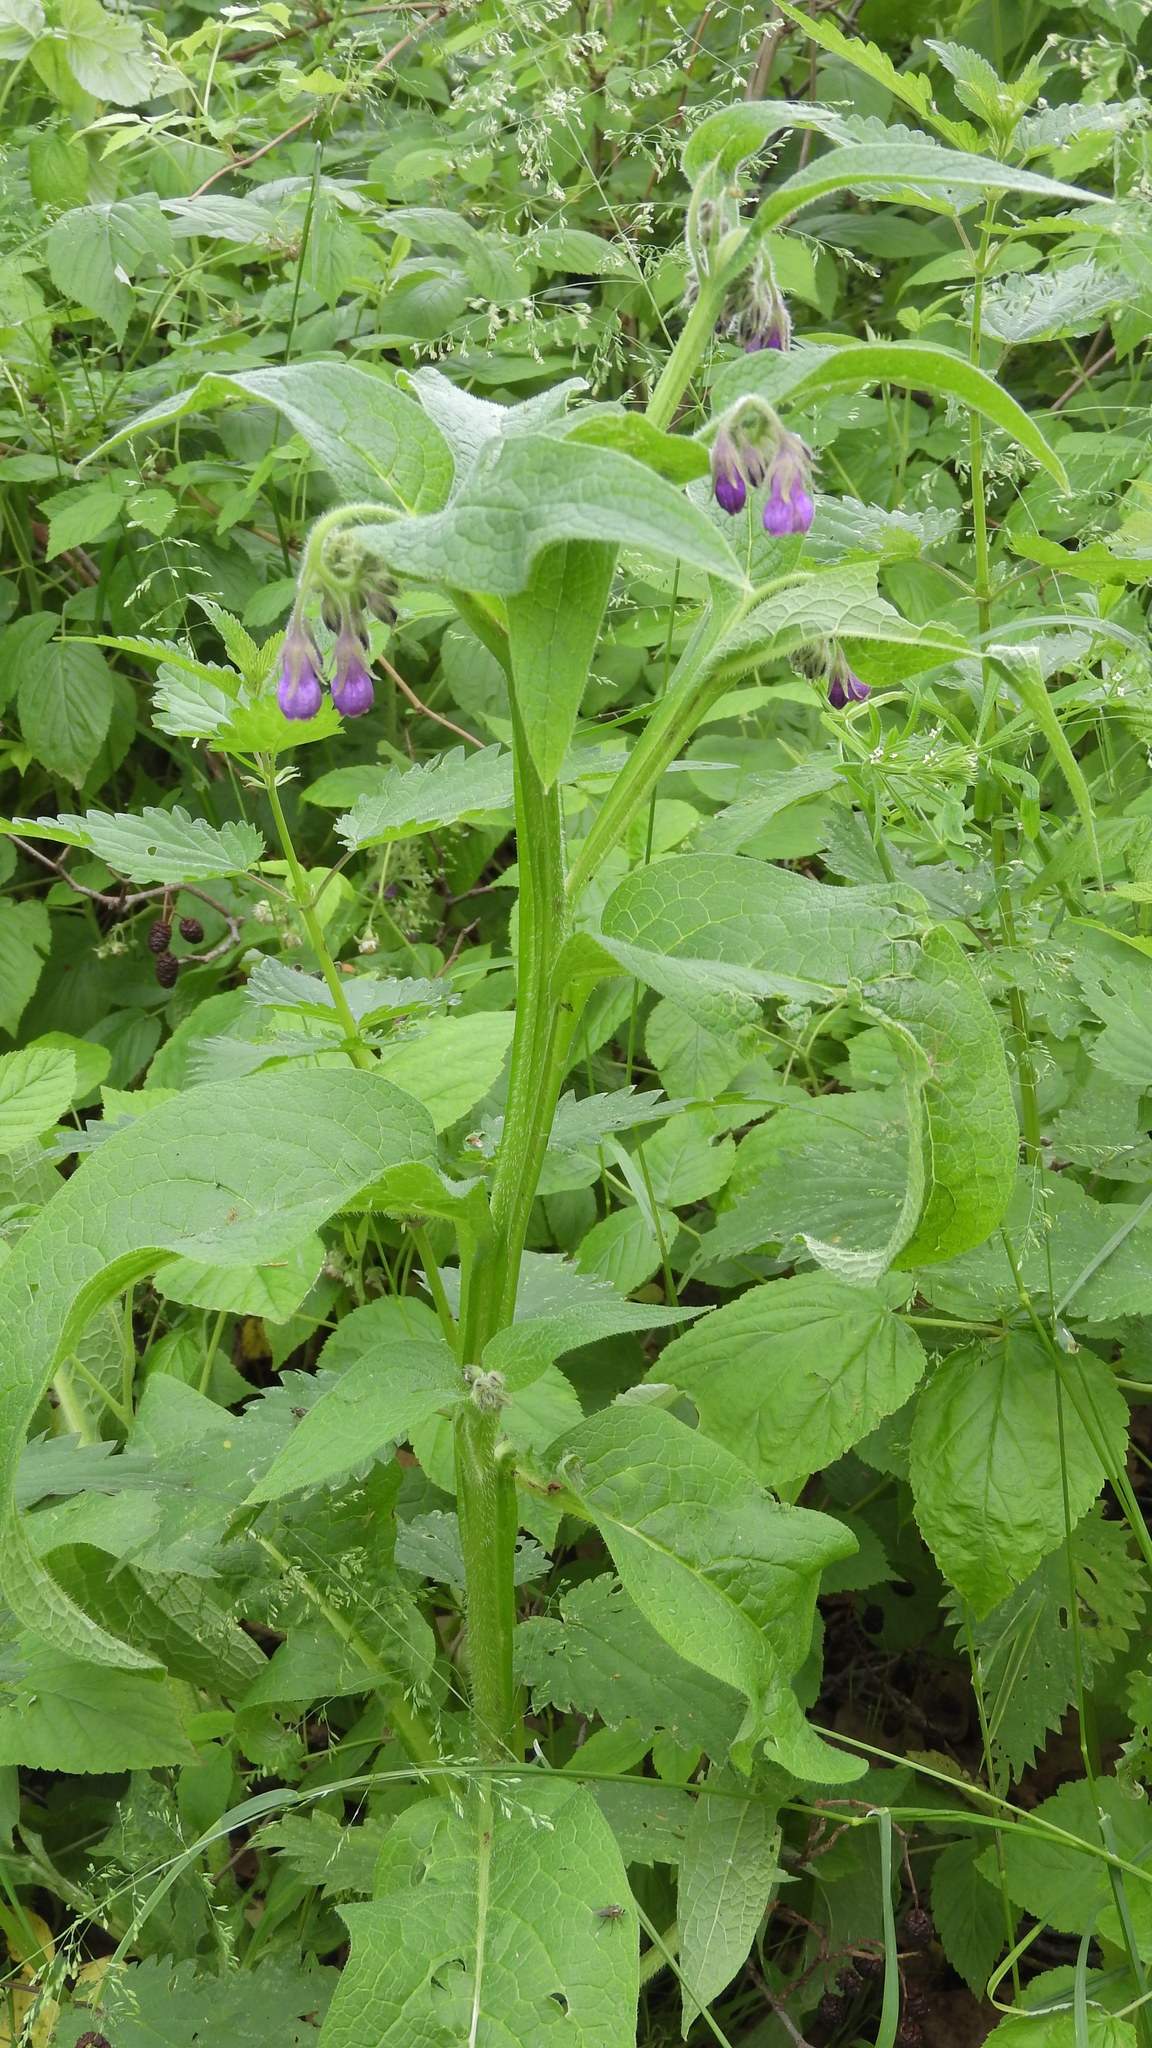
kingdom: Plantae
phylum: Tracheophyta
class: Magnoliopsida
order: Boraginales
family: Boraginaceae
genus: Symphytum
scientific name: Symphytum officinale
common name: Common comfrey
